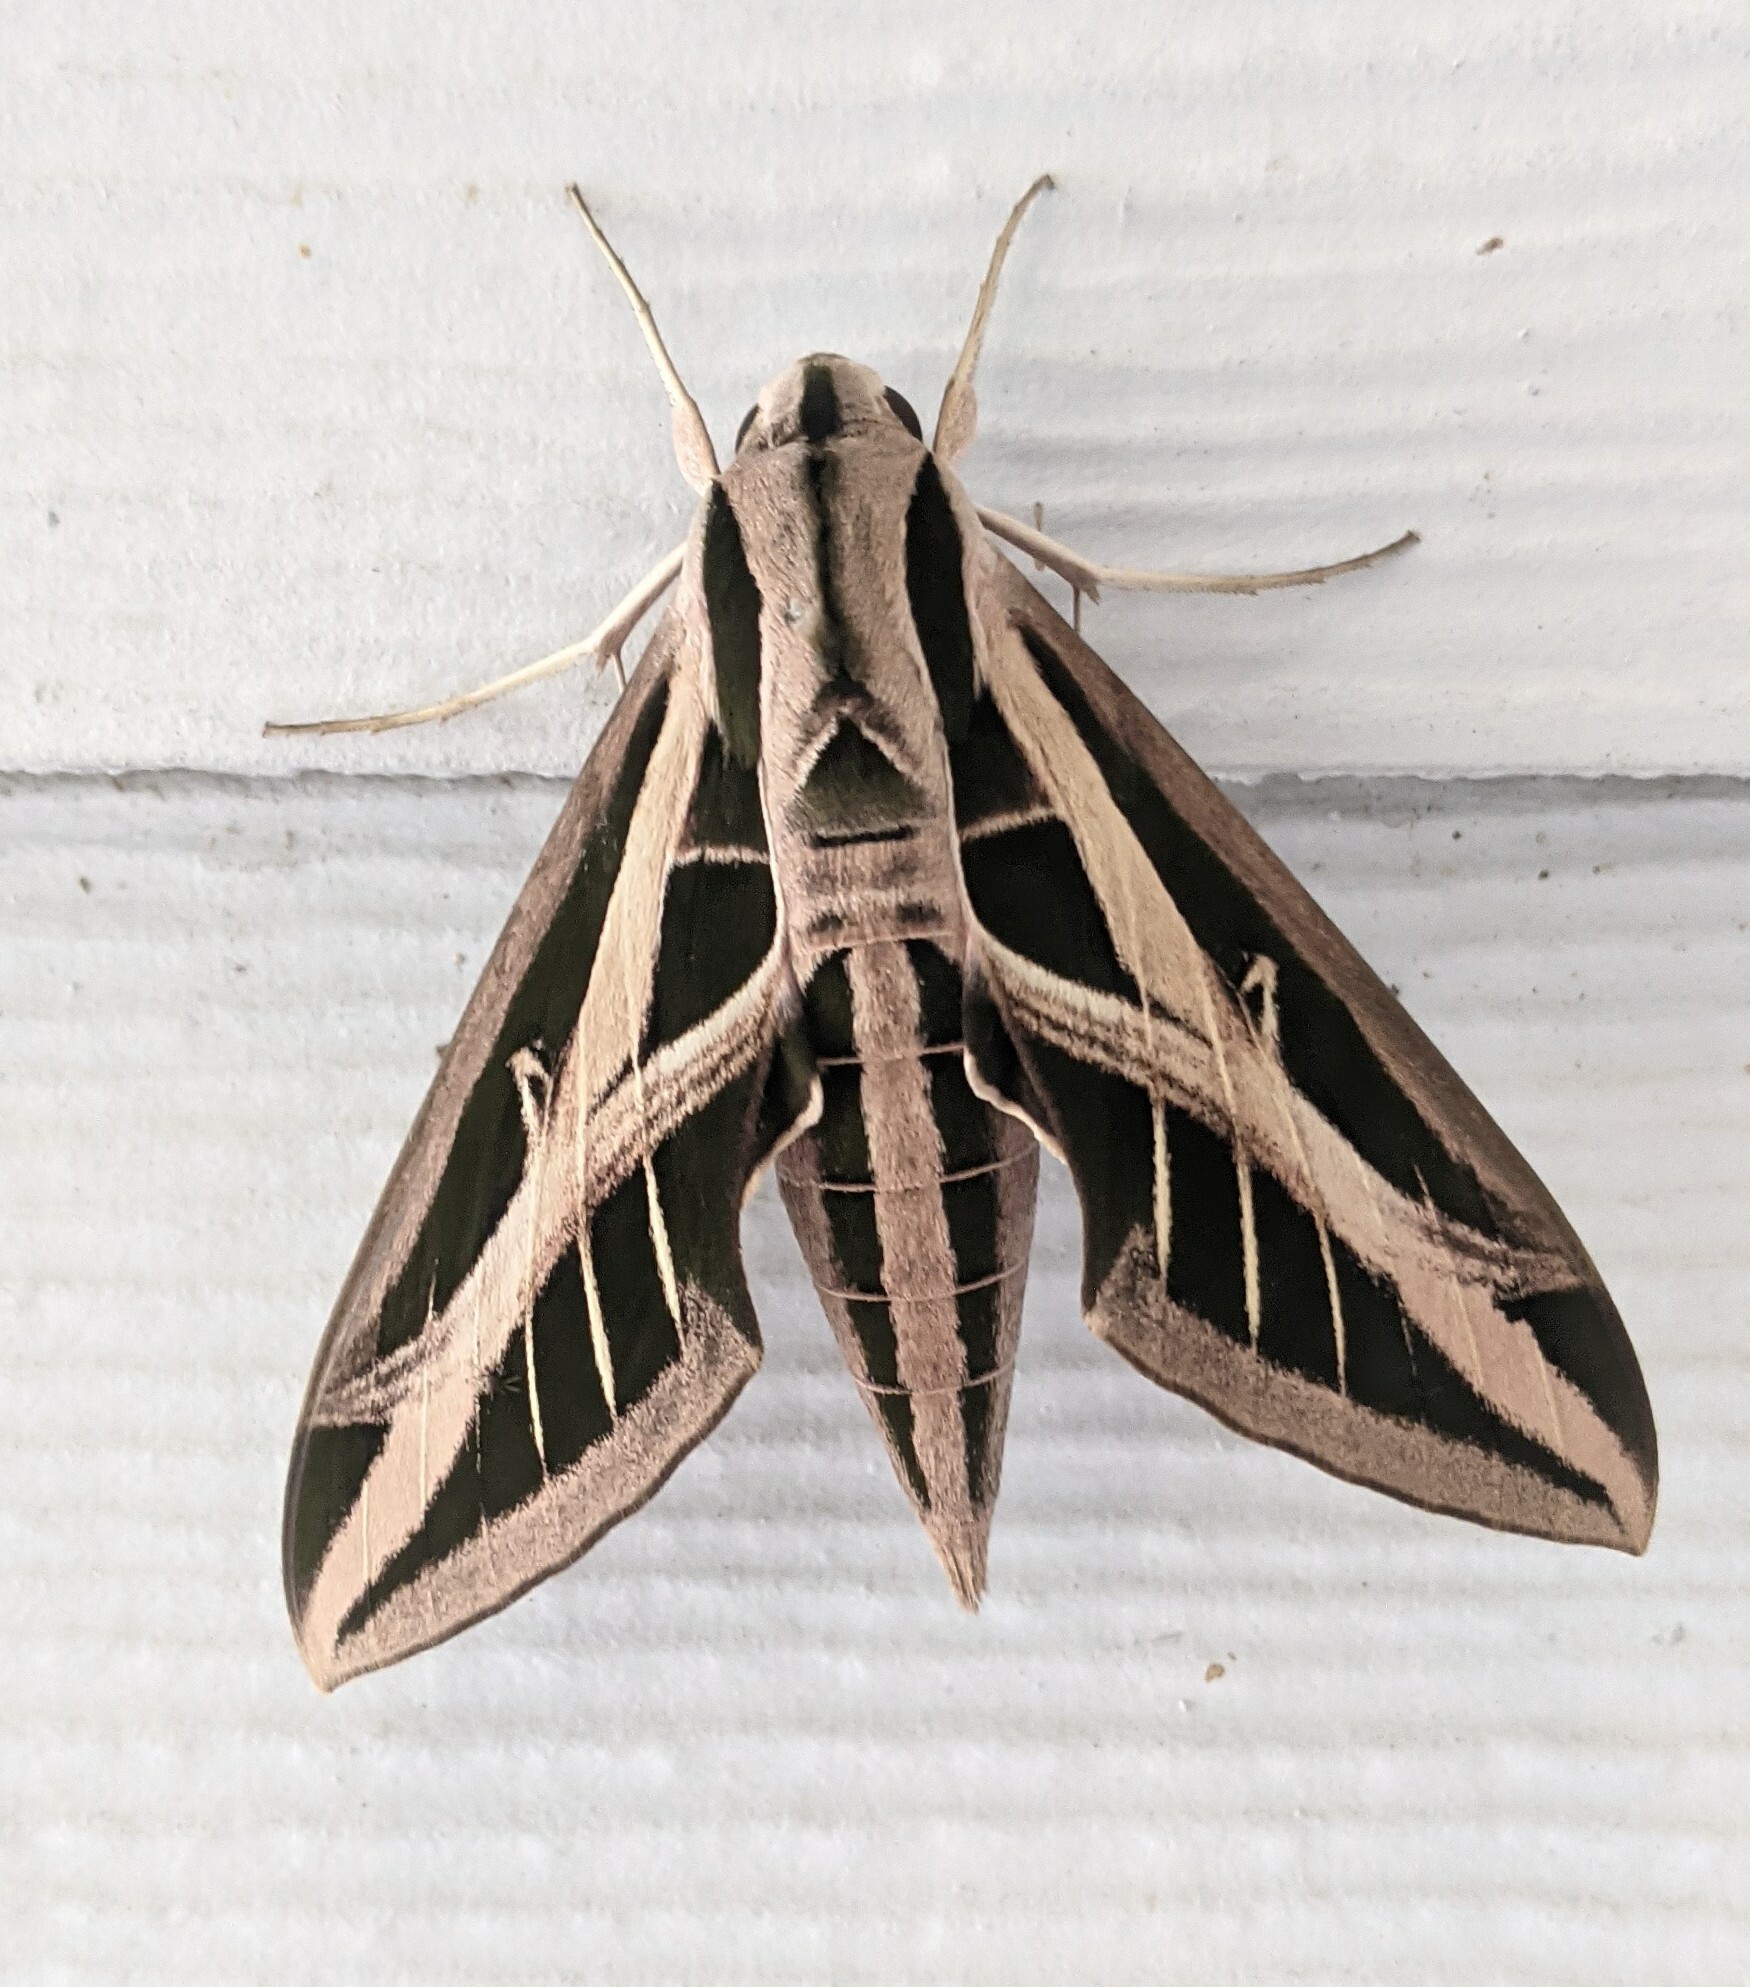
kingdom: Animalia
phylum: Arthropoda
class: Insecta
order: Lepidoptera
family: Sphingidae
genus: Eumorpha
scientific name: Eumorpha fasciatus
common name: Banded sphinx
